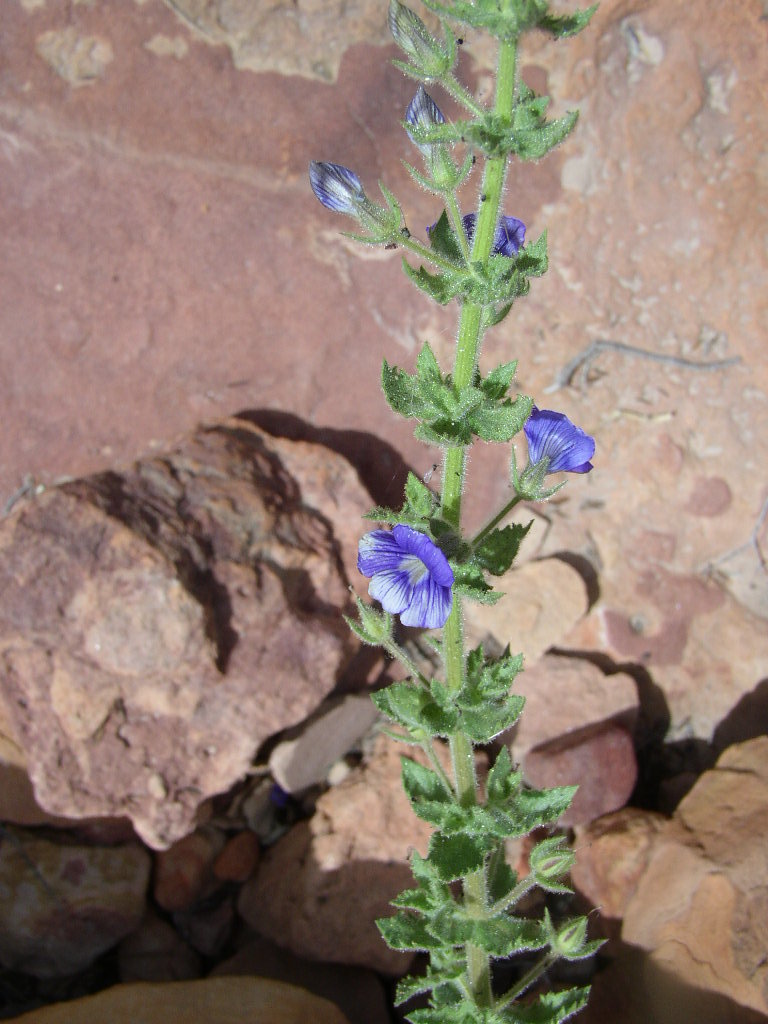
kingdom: Plantae
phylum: Tracheophyta
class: Magnoliopsida
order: Lamiales
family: Plantaginaceae
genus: Stemodia
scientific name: Stemodia viscosa
